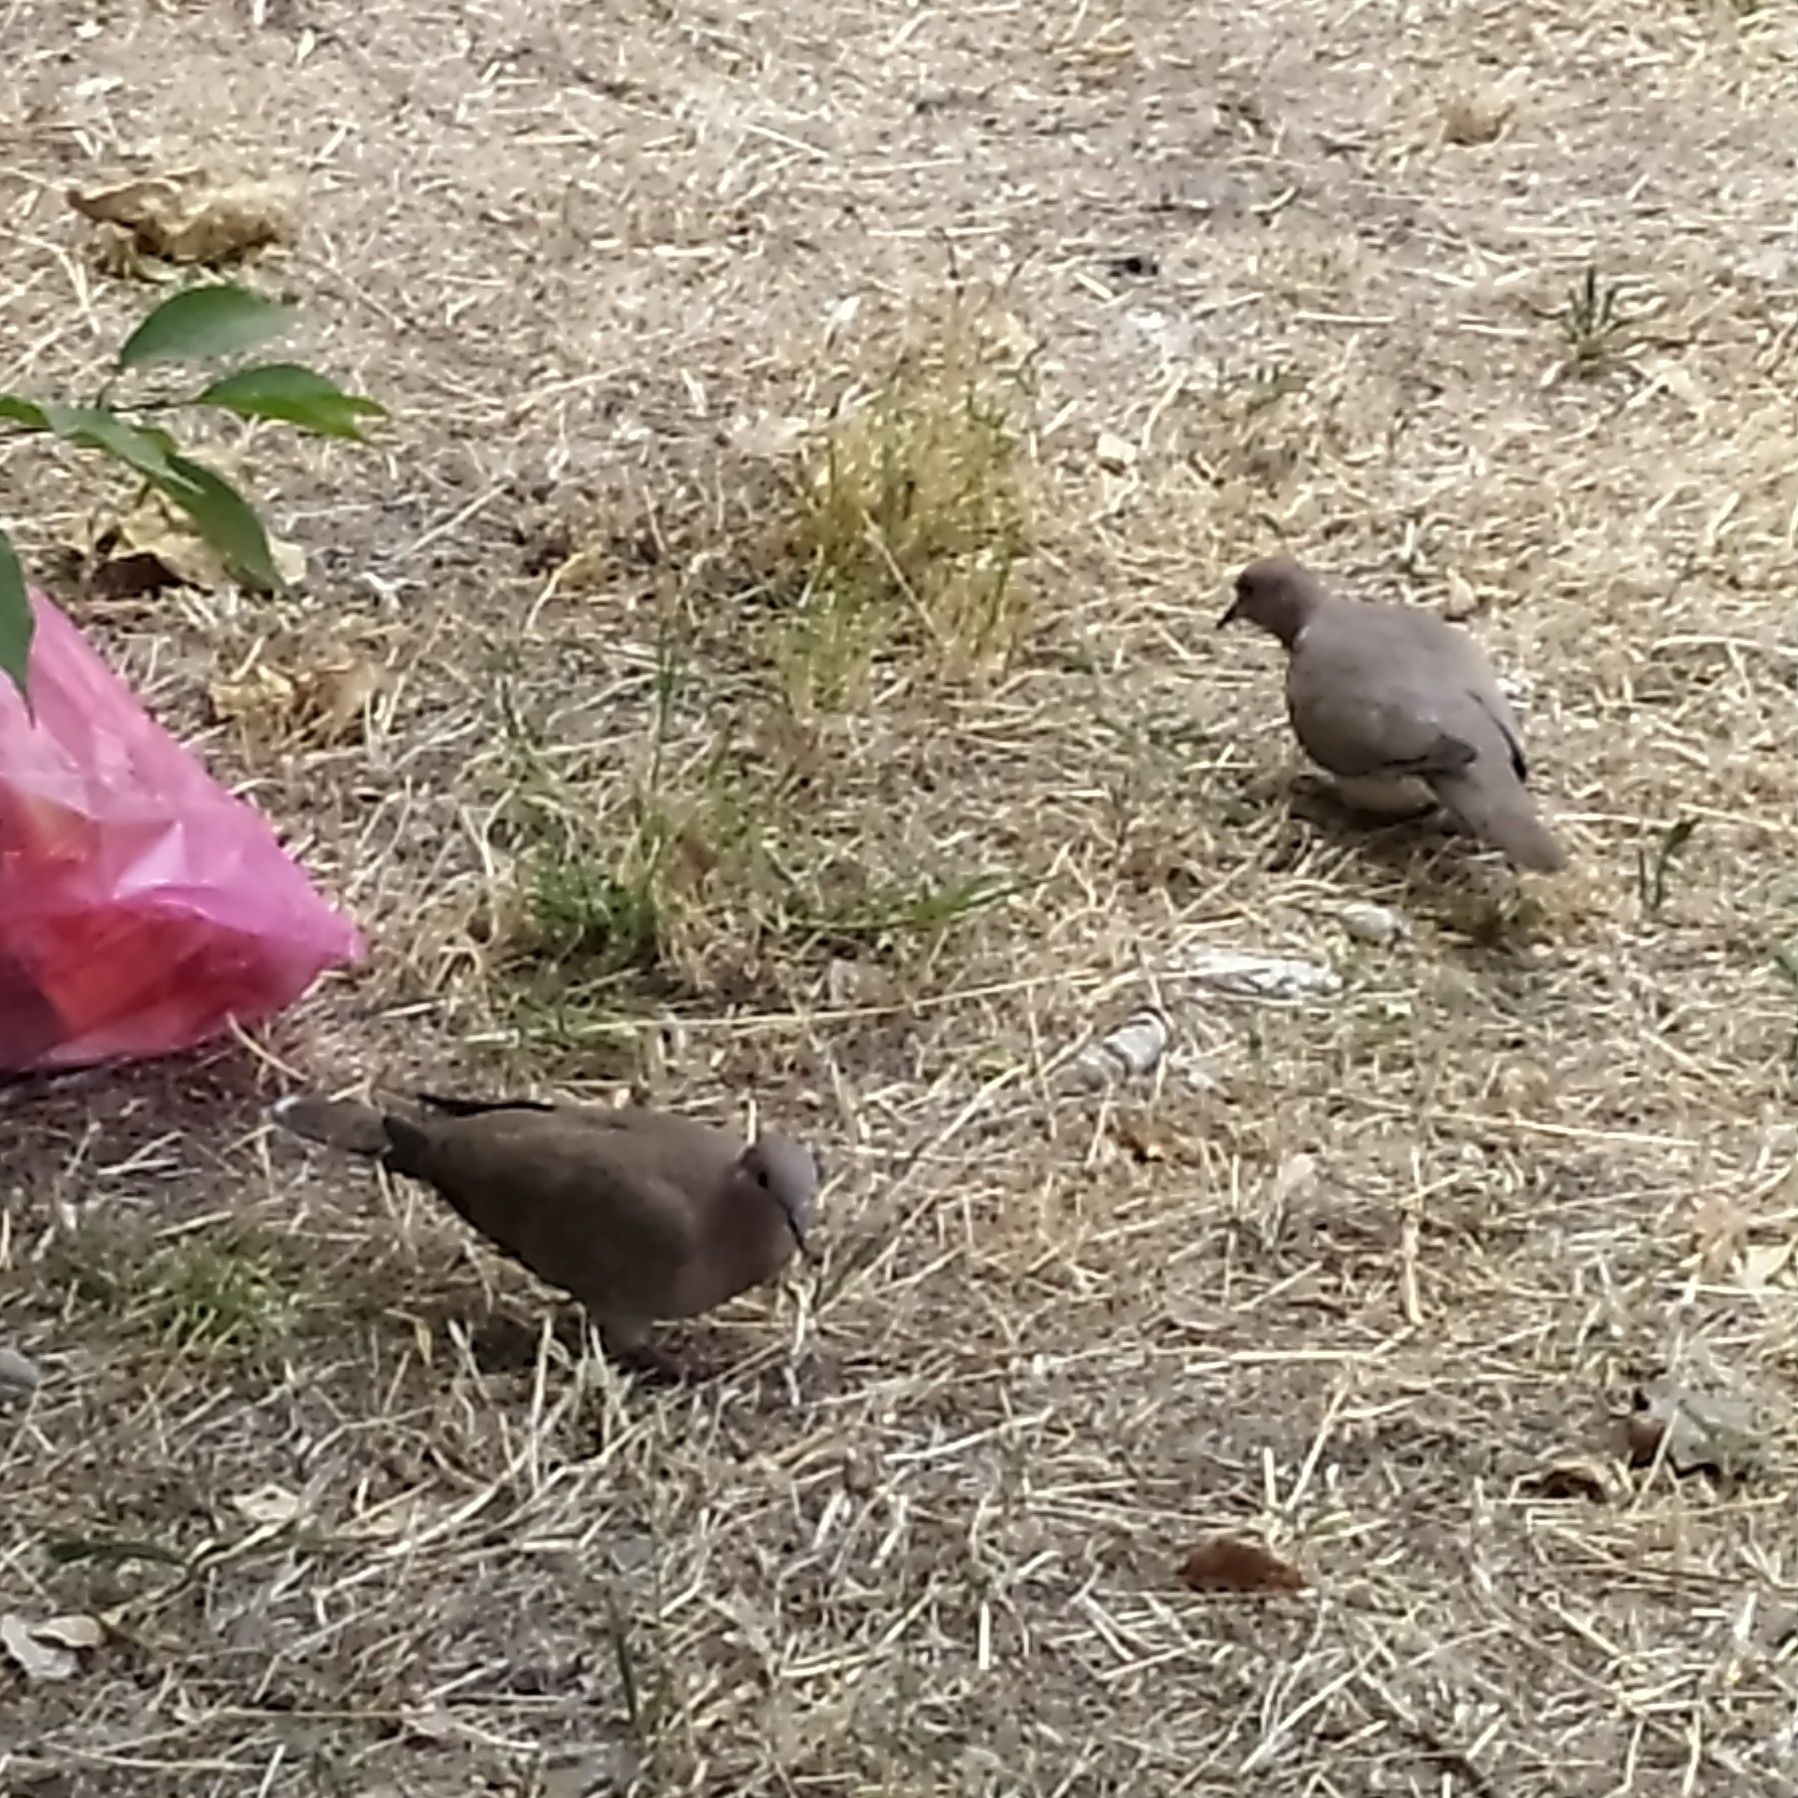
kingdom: Animalia
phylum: Chordata
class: Aves
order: Columbiformes
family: Columbidae
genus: Spilopelia
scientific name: Spilopelia senegalensis
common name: Laughing dove
